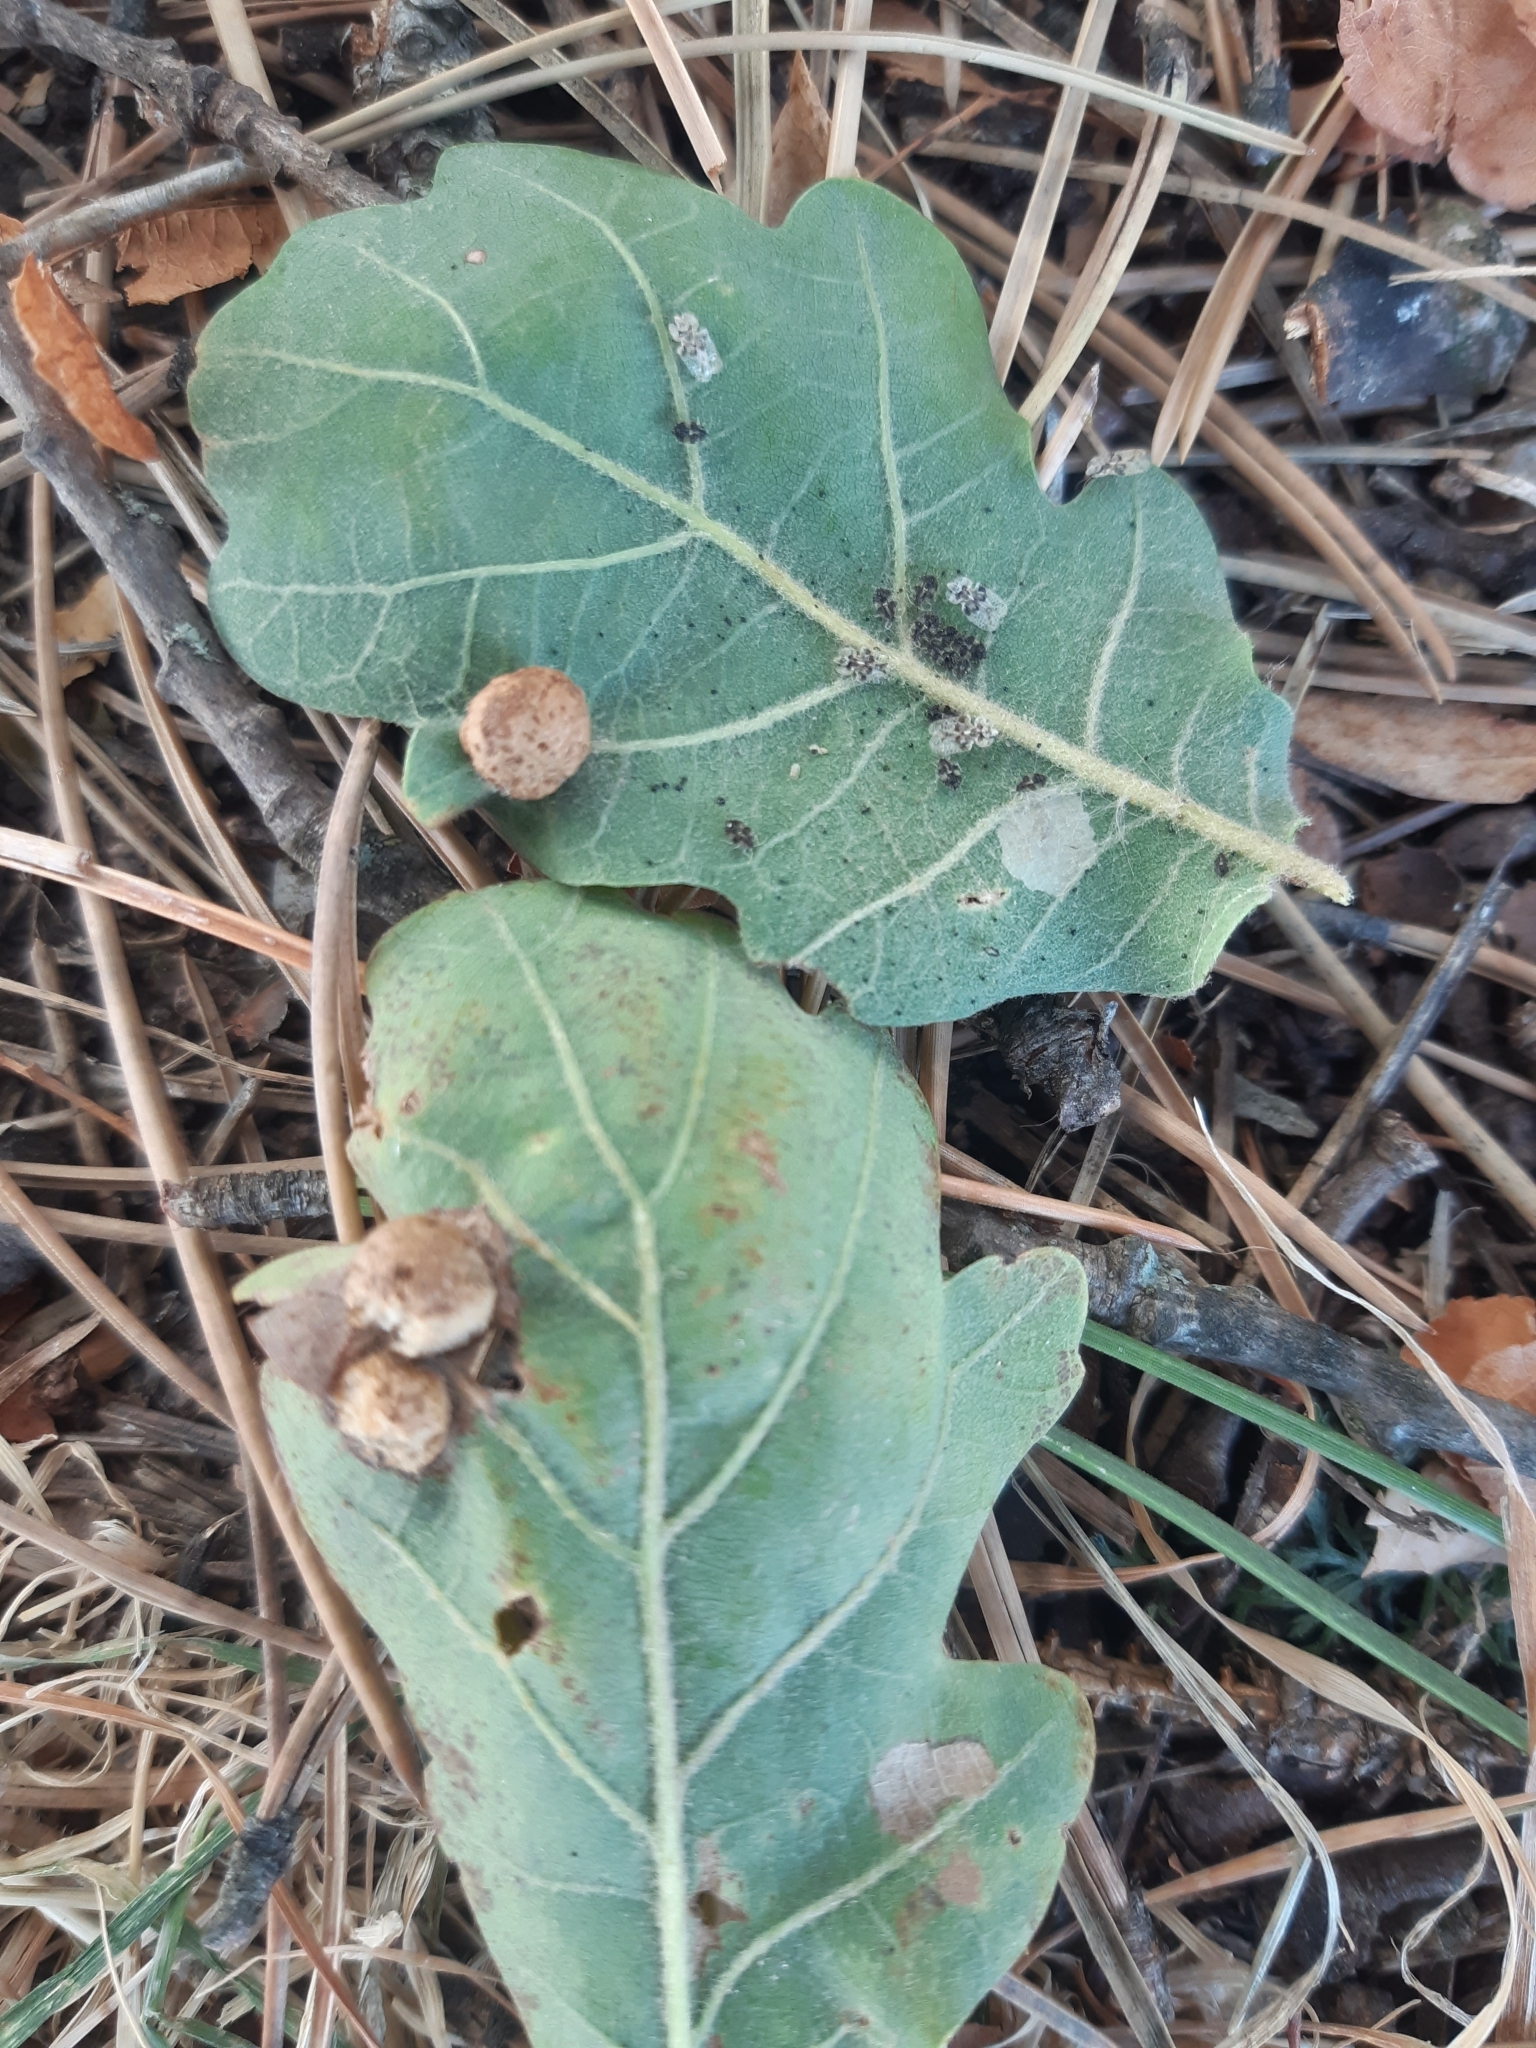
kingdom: Animalia
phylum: Arthropoda
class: Insecta
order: Hymenoptera
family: Cynipidae
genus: Neuroterus
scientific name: Neuroterus quercusbaccarum
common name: Common spangle gall
